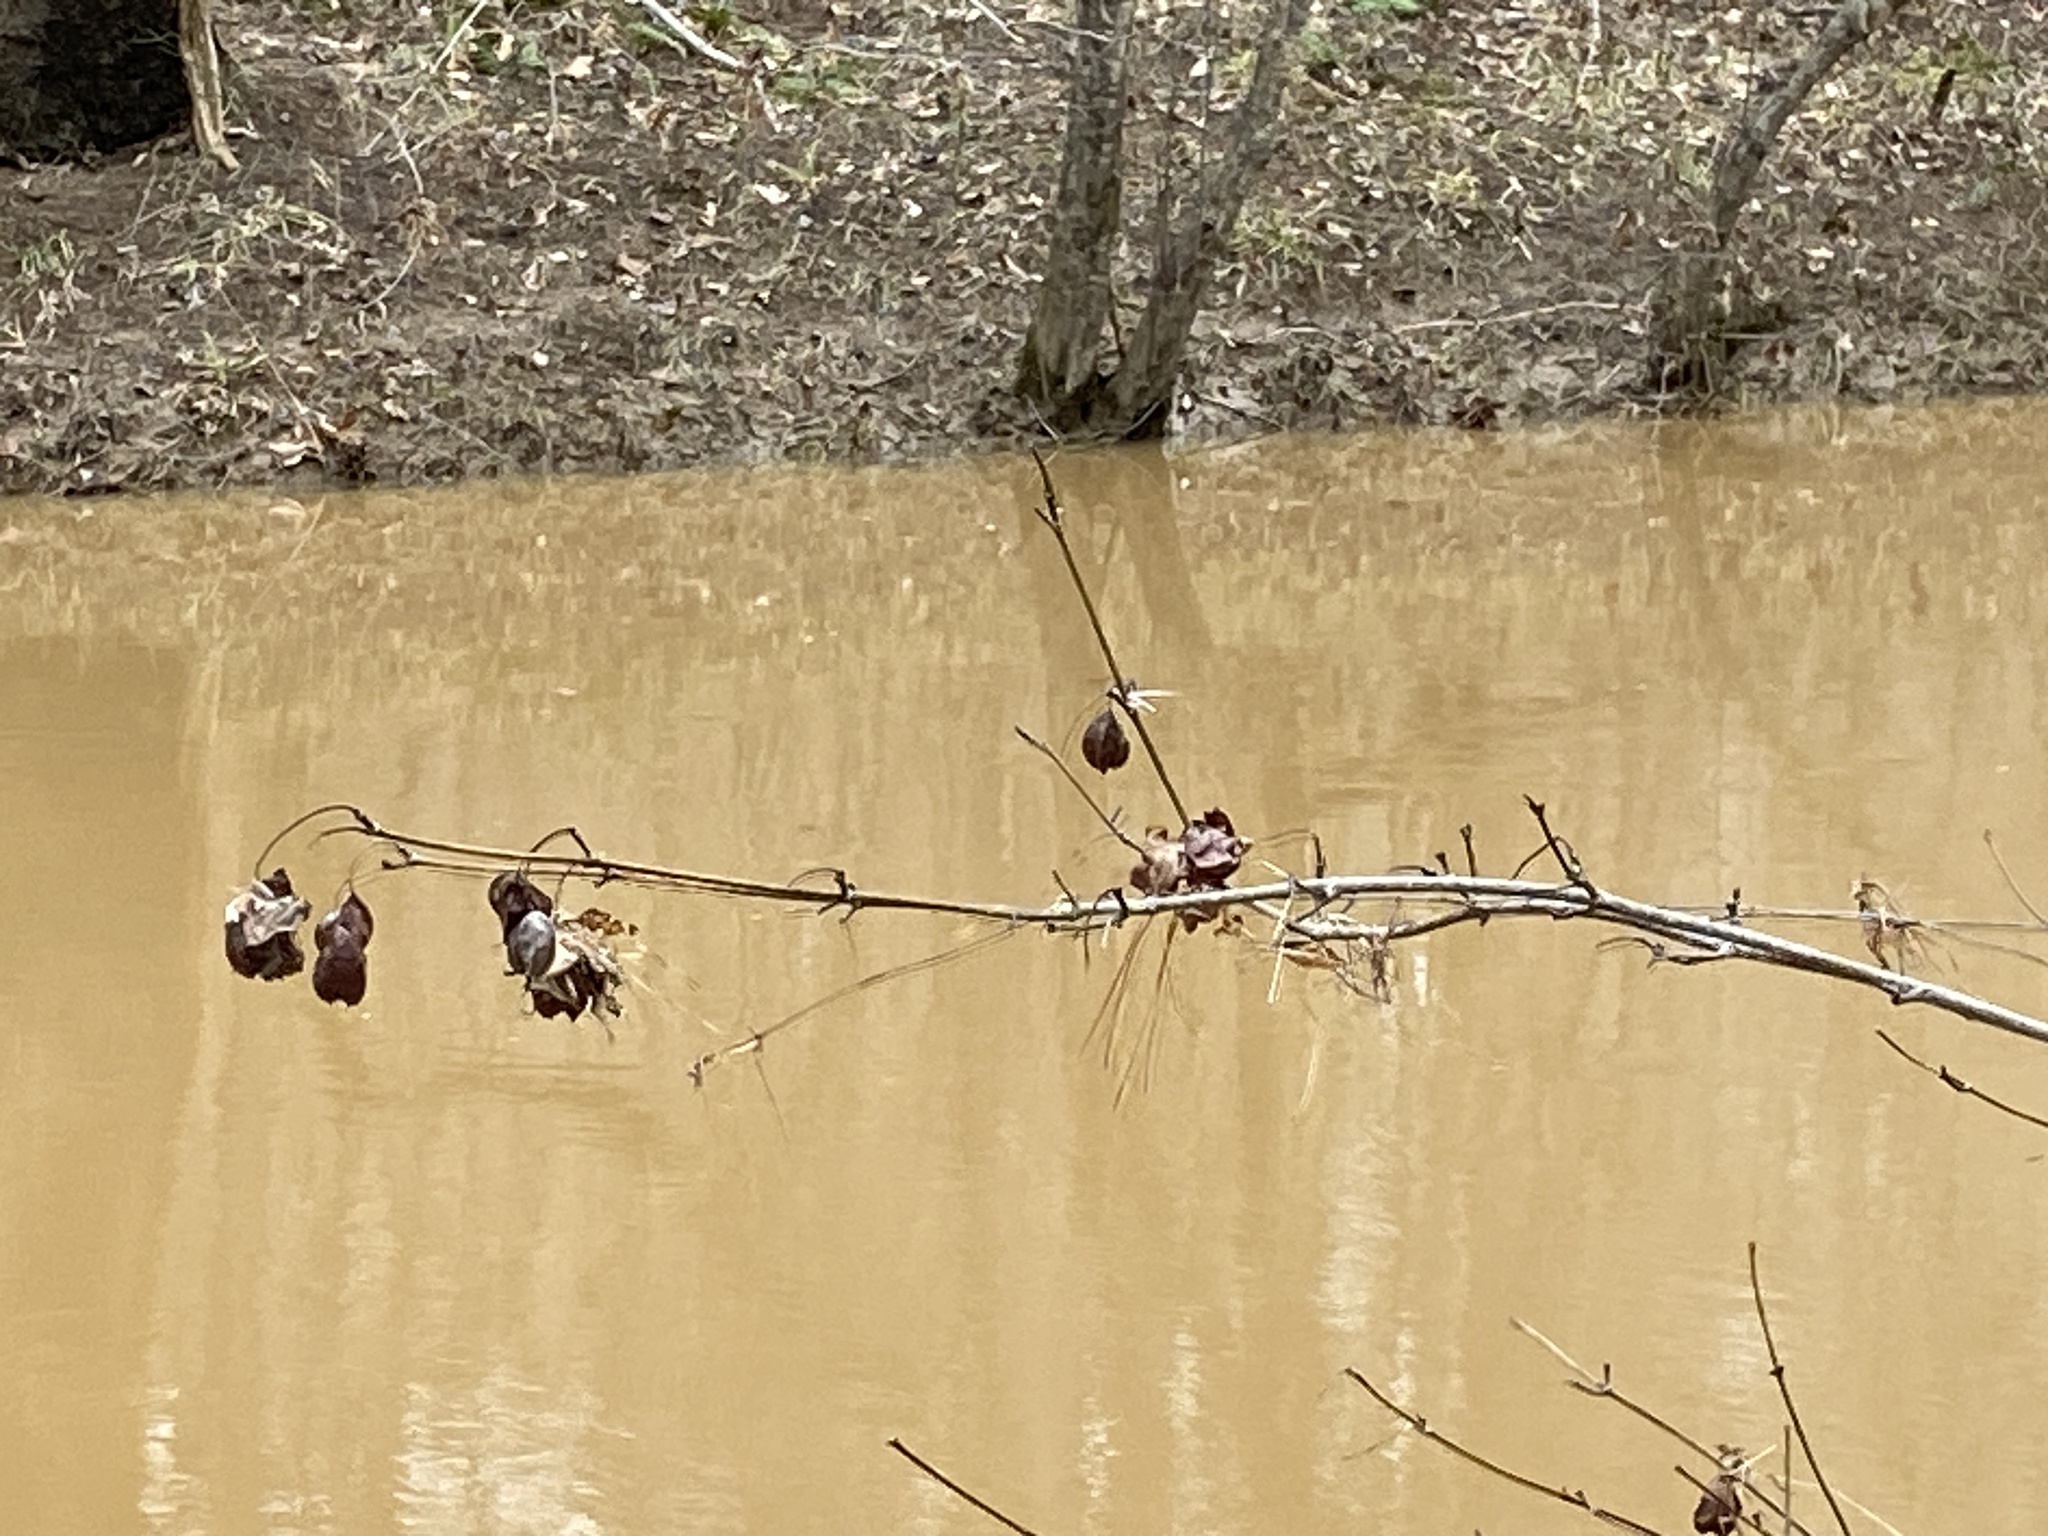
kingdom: Plantae
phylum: Tracheophyta
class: Magnoliopsida
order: Crossosomatales
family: Staphyleaceae
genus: Staphylea
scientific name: Staphylea trifolia
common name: American bladdernut
